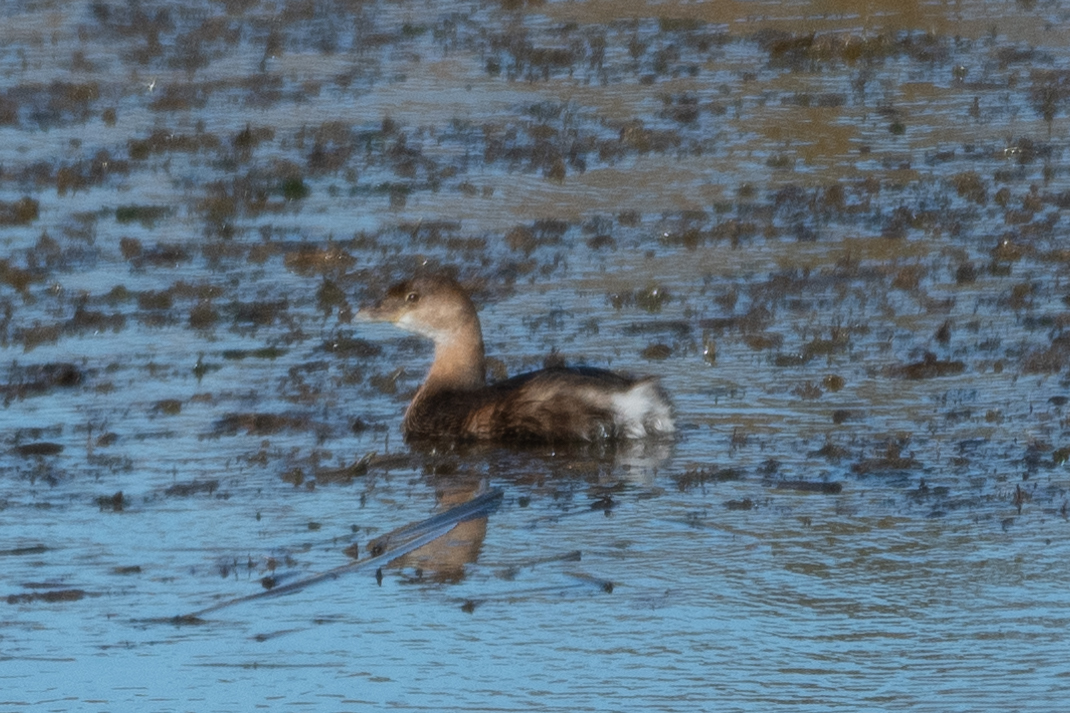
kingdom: Animalia
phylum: Chordata
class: Aves
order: Podicipediformes
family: Podicipedidae
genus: Podilymbus
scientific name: Podilymbus podiceps
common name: Pied-billed grebe
